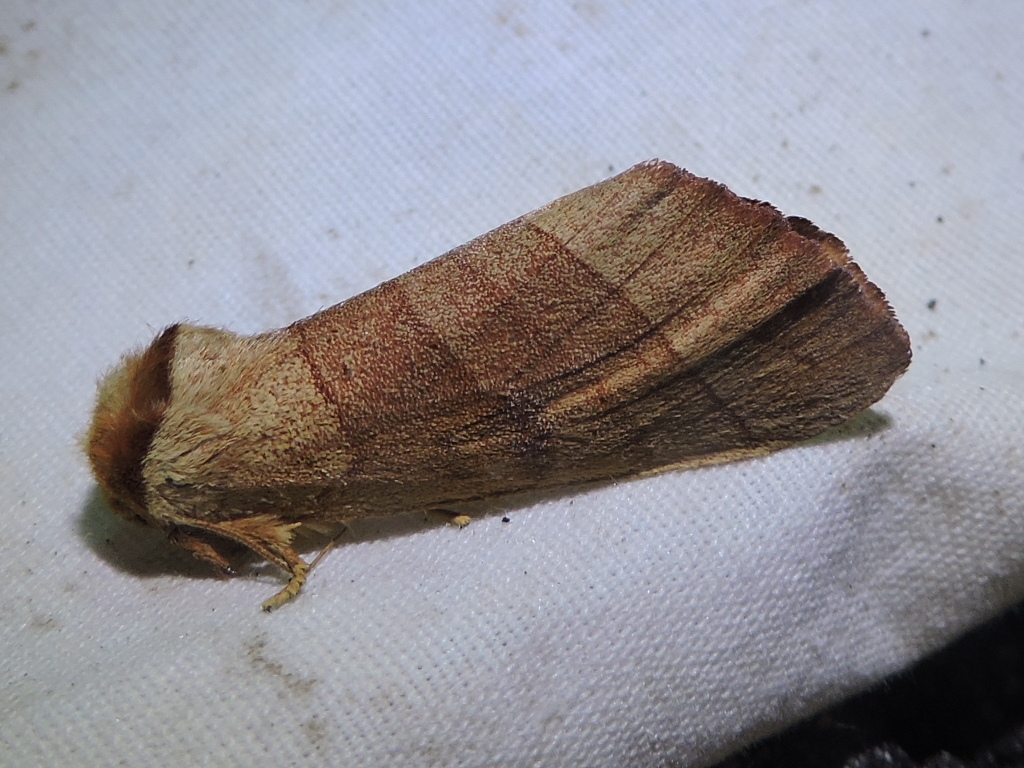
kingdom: Animalia
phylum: Arthropoda
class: Insecta
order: Lepidoptera
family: Notodontidae
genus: Datana
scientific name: Datana perspicua
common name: Spotted datana
